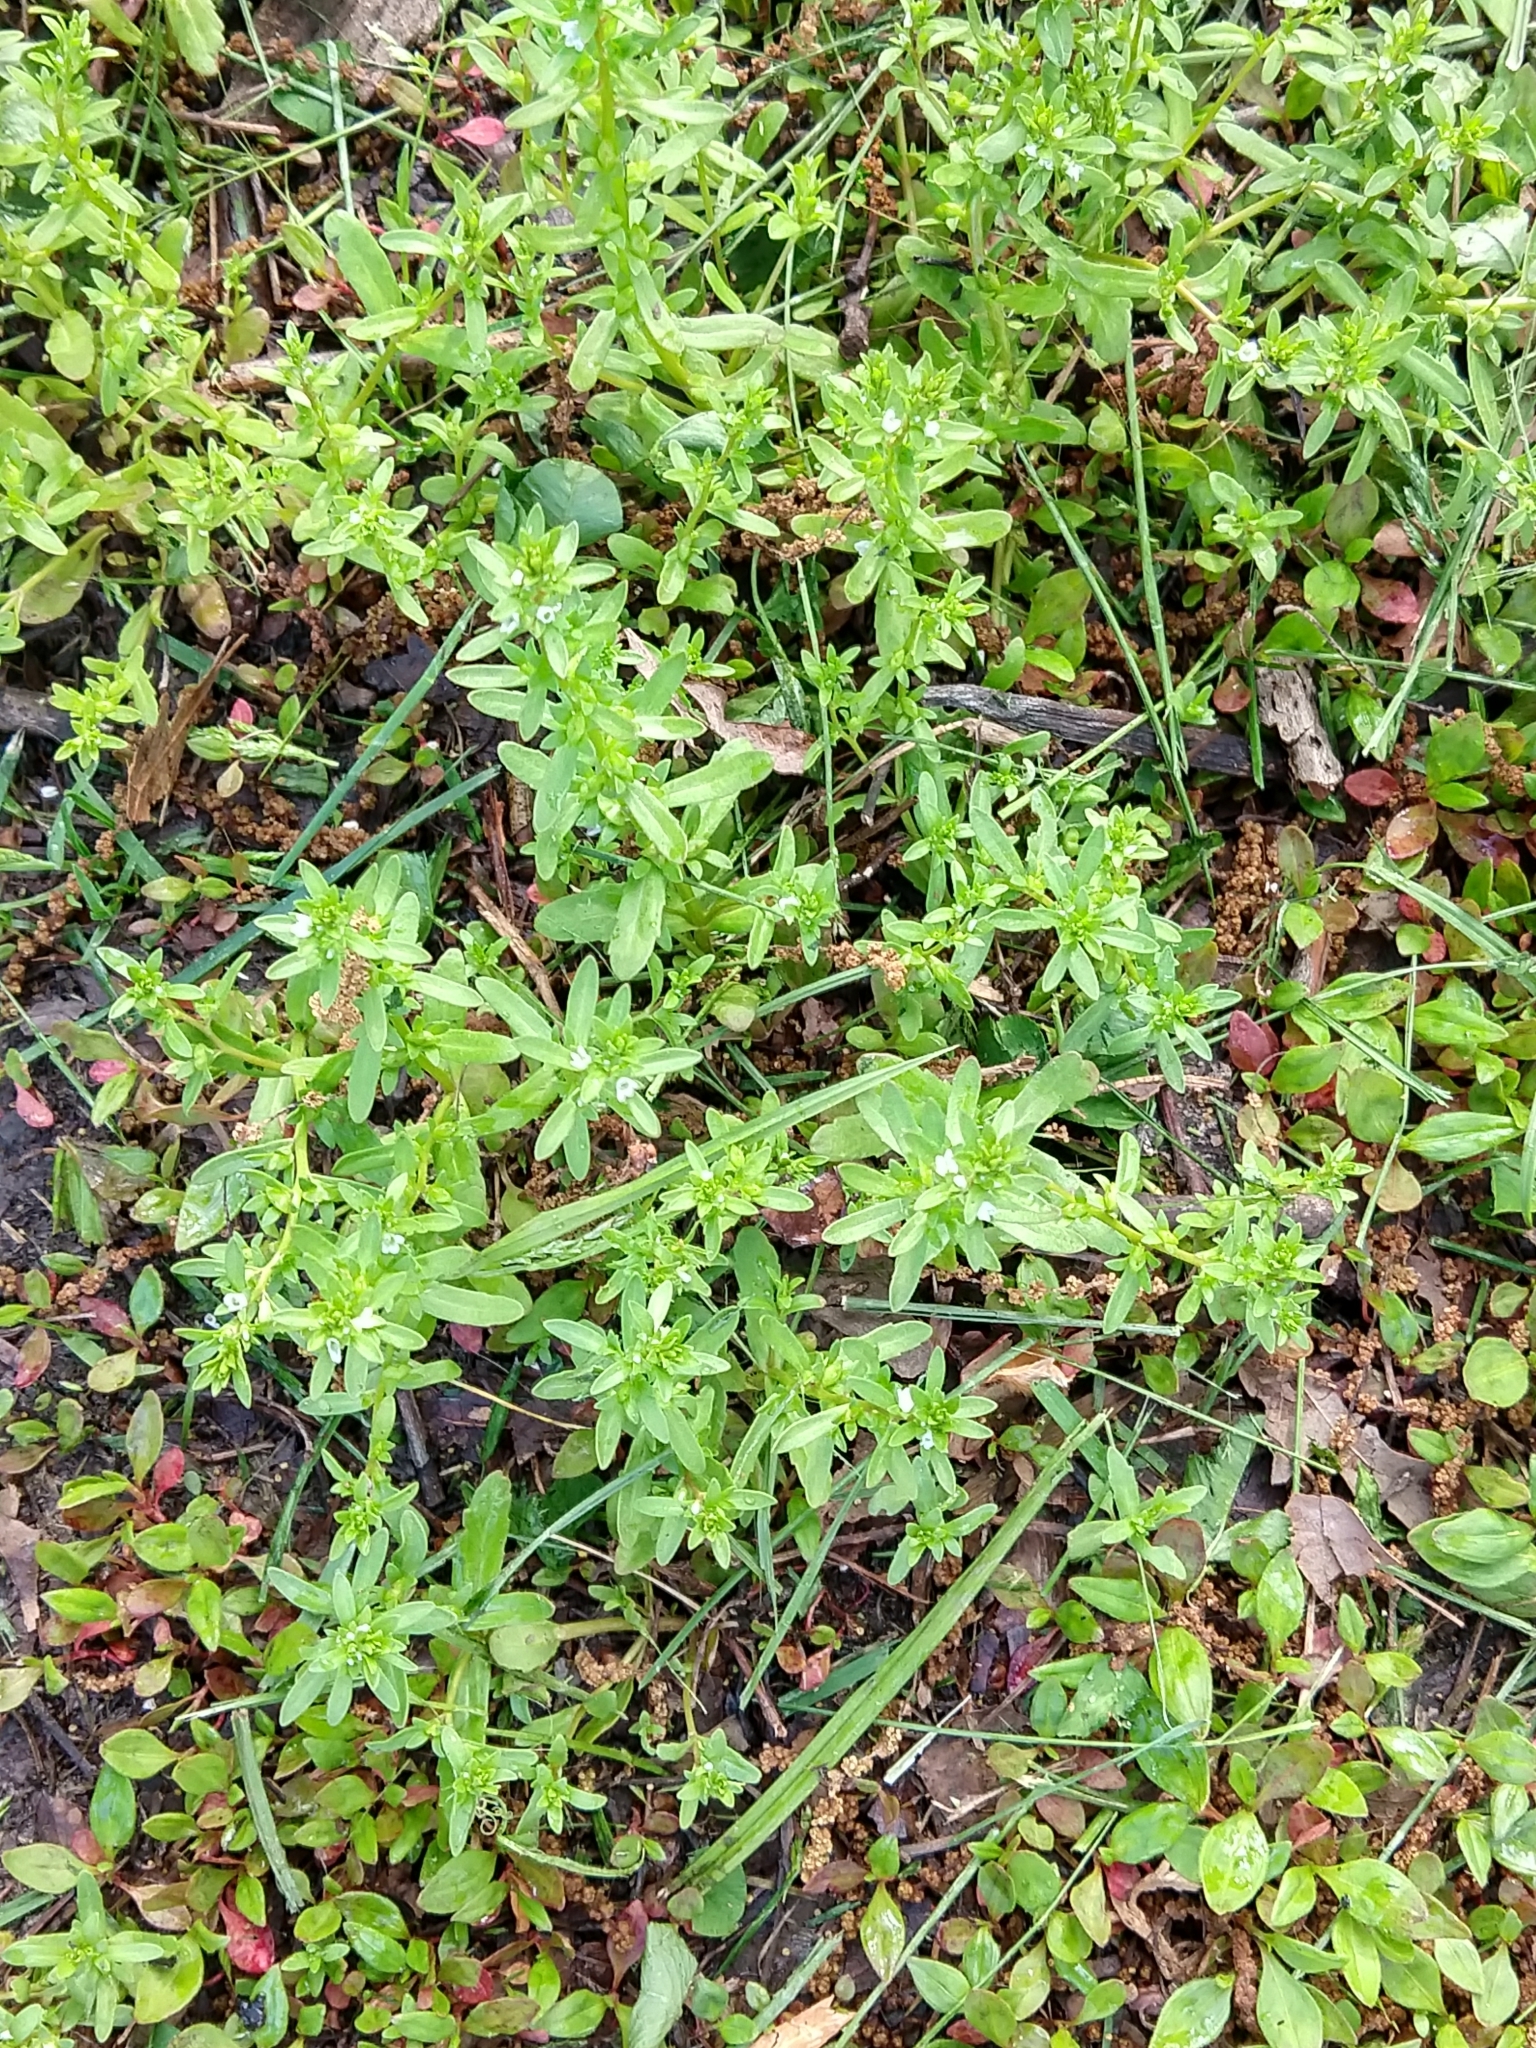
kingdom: Plantae
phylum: Tracheophyta
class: Magnoliopsida
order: Lamiales
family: Plantaginaceae
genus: Veronica
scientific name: Veronica peregrina
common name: Neckweed
